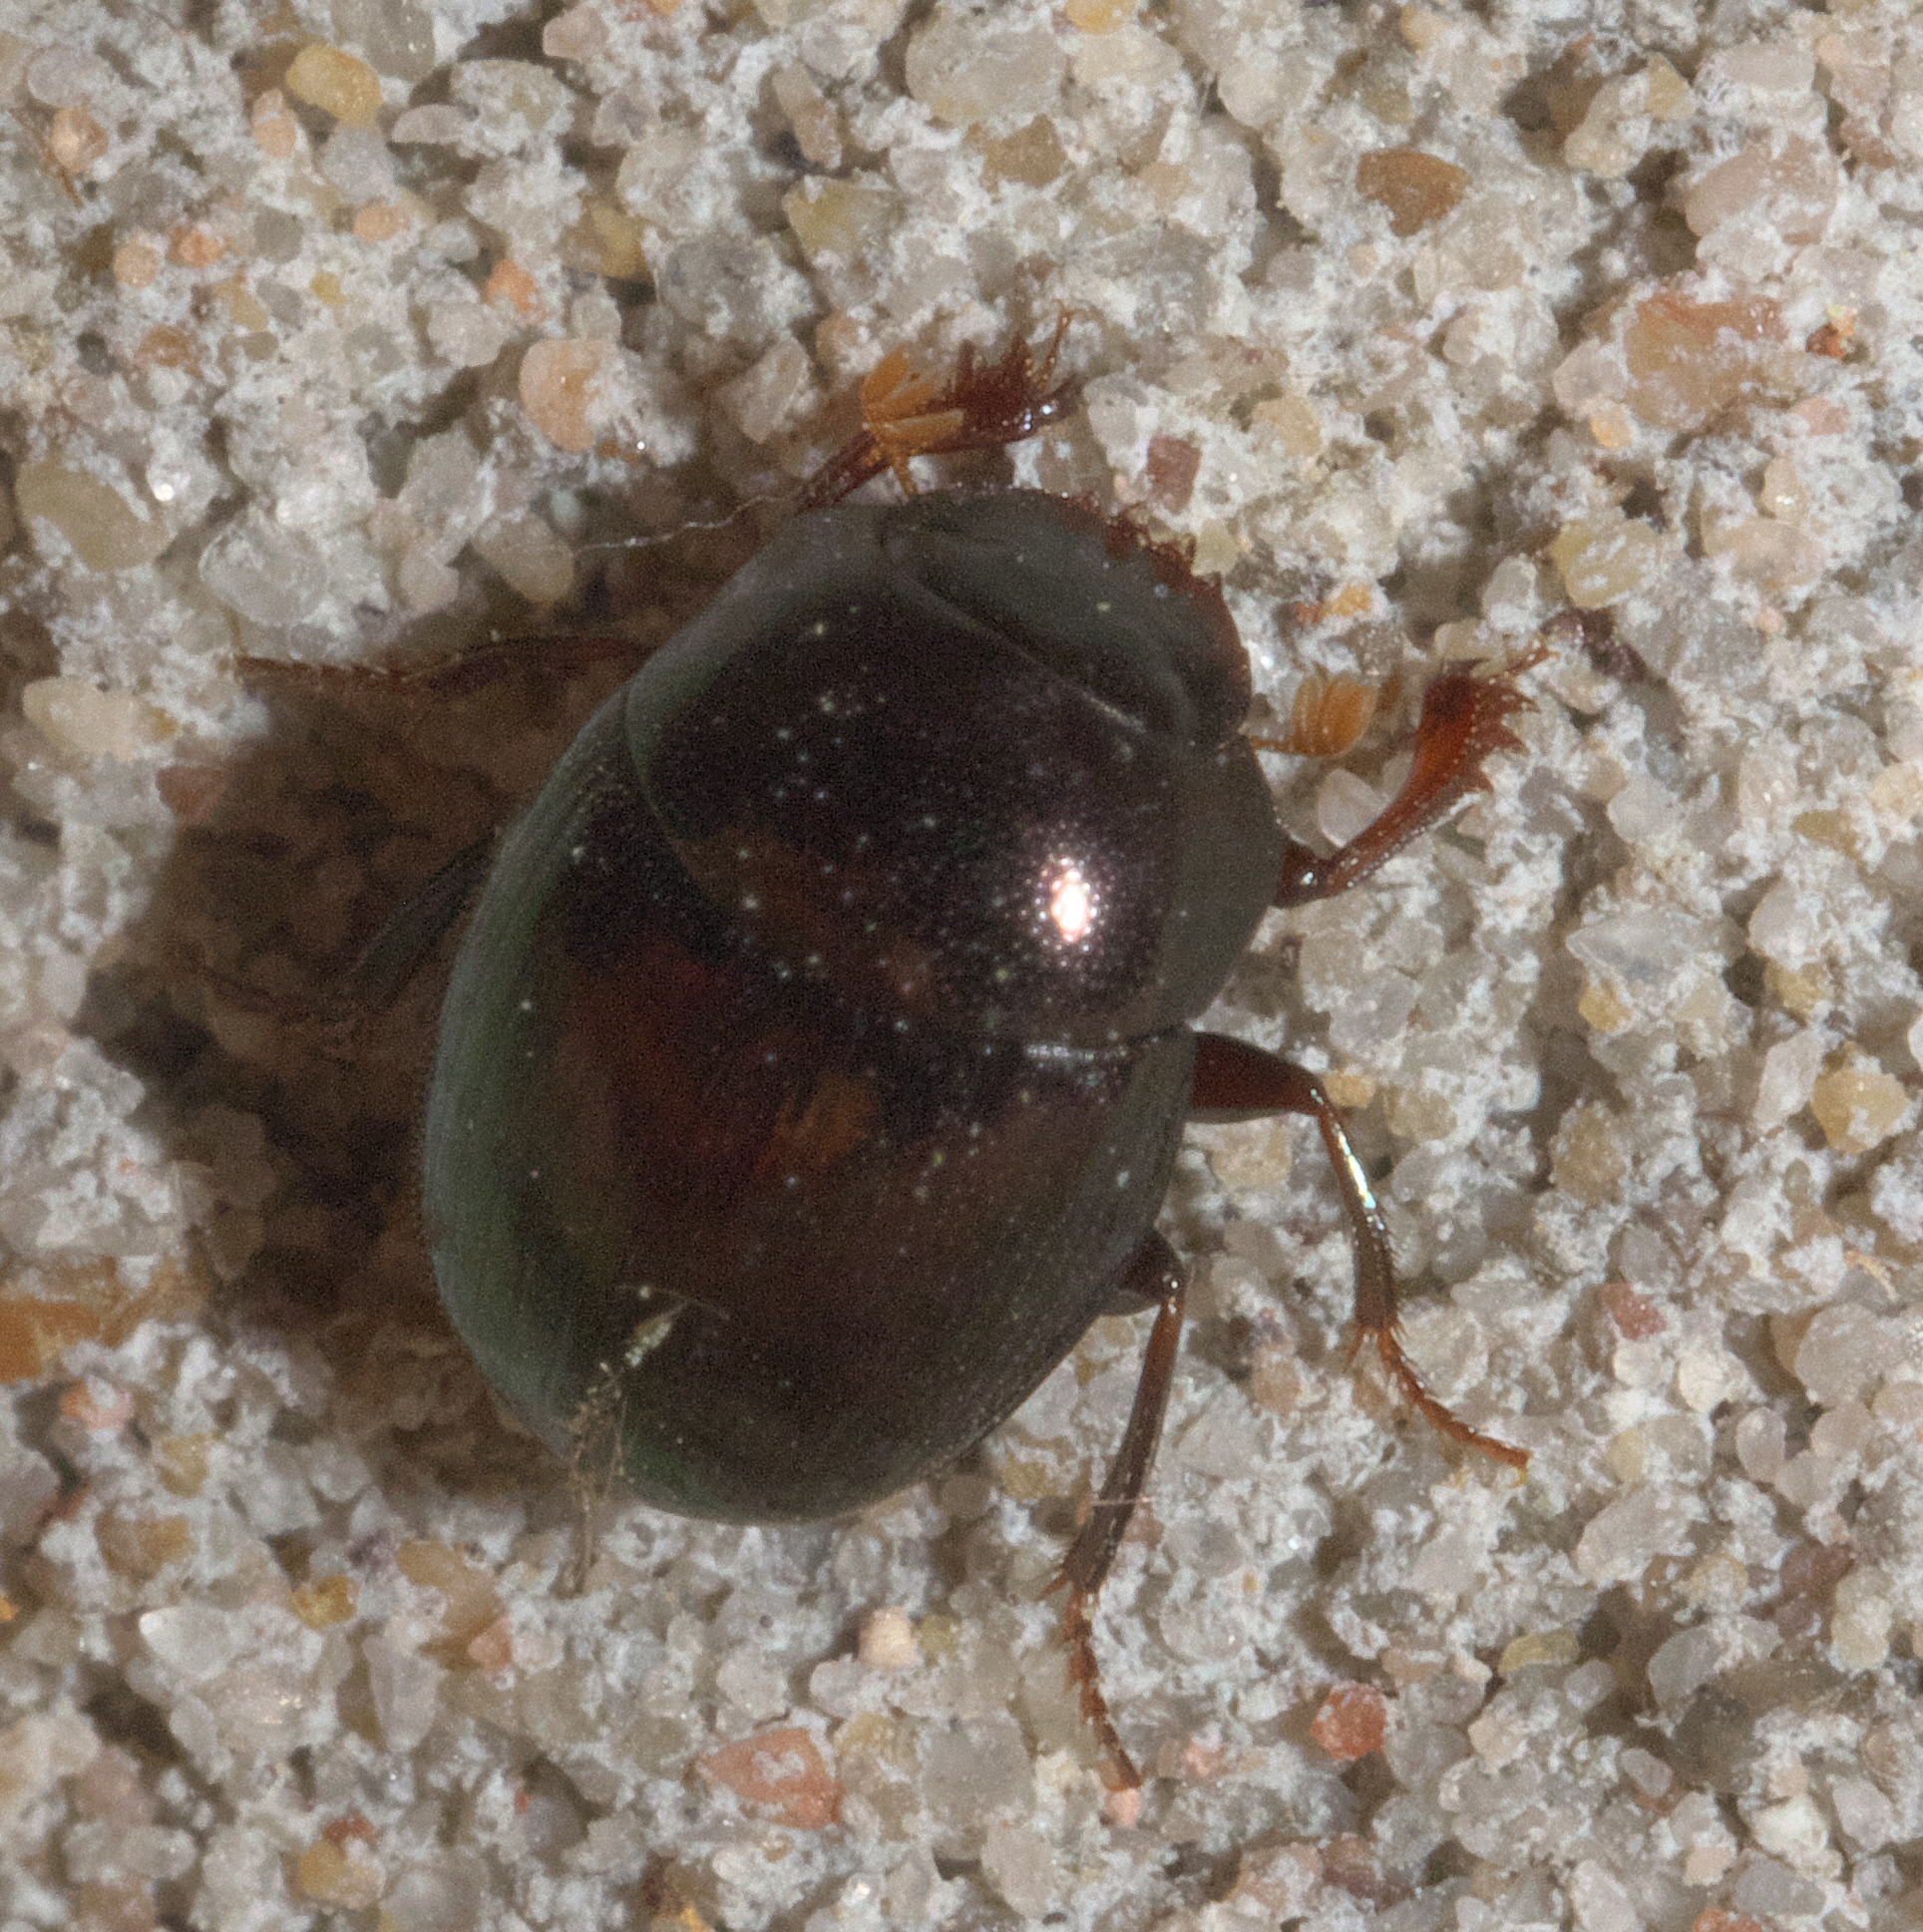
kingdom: Animalia
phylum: Arthropoda
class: Insecta
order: Coleoptera
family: Scarabaeidae
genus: Pseudocanthon
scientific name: Pseudocanthon perplexus
